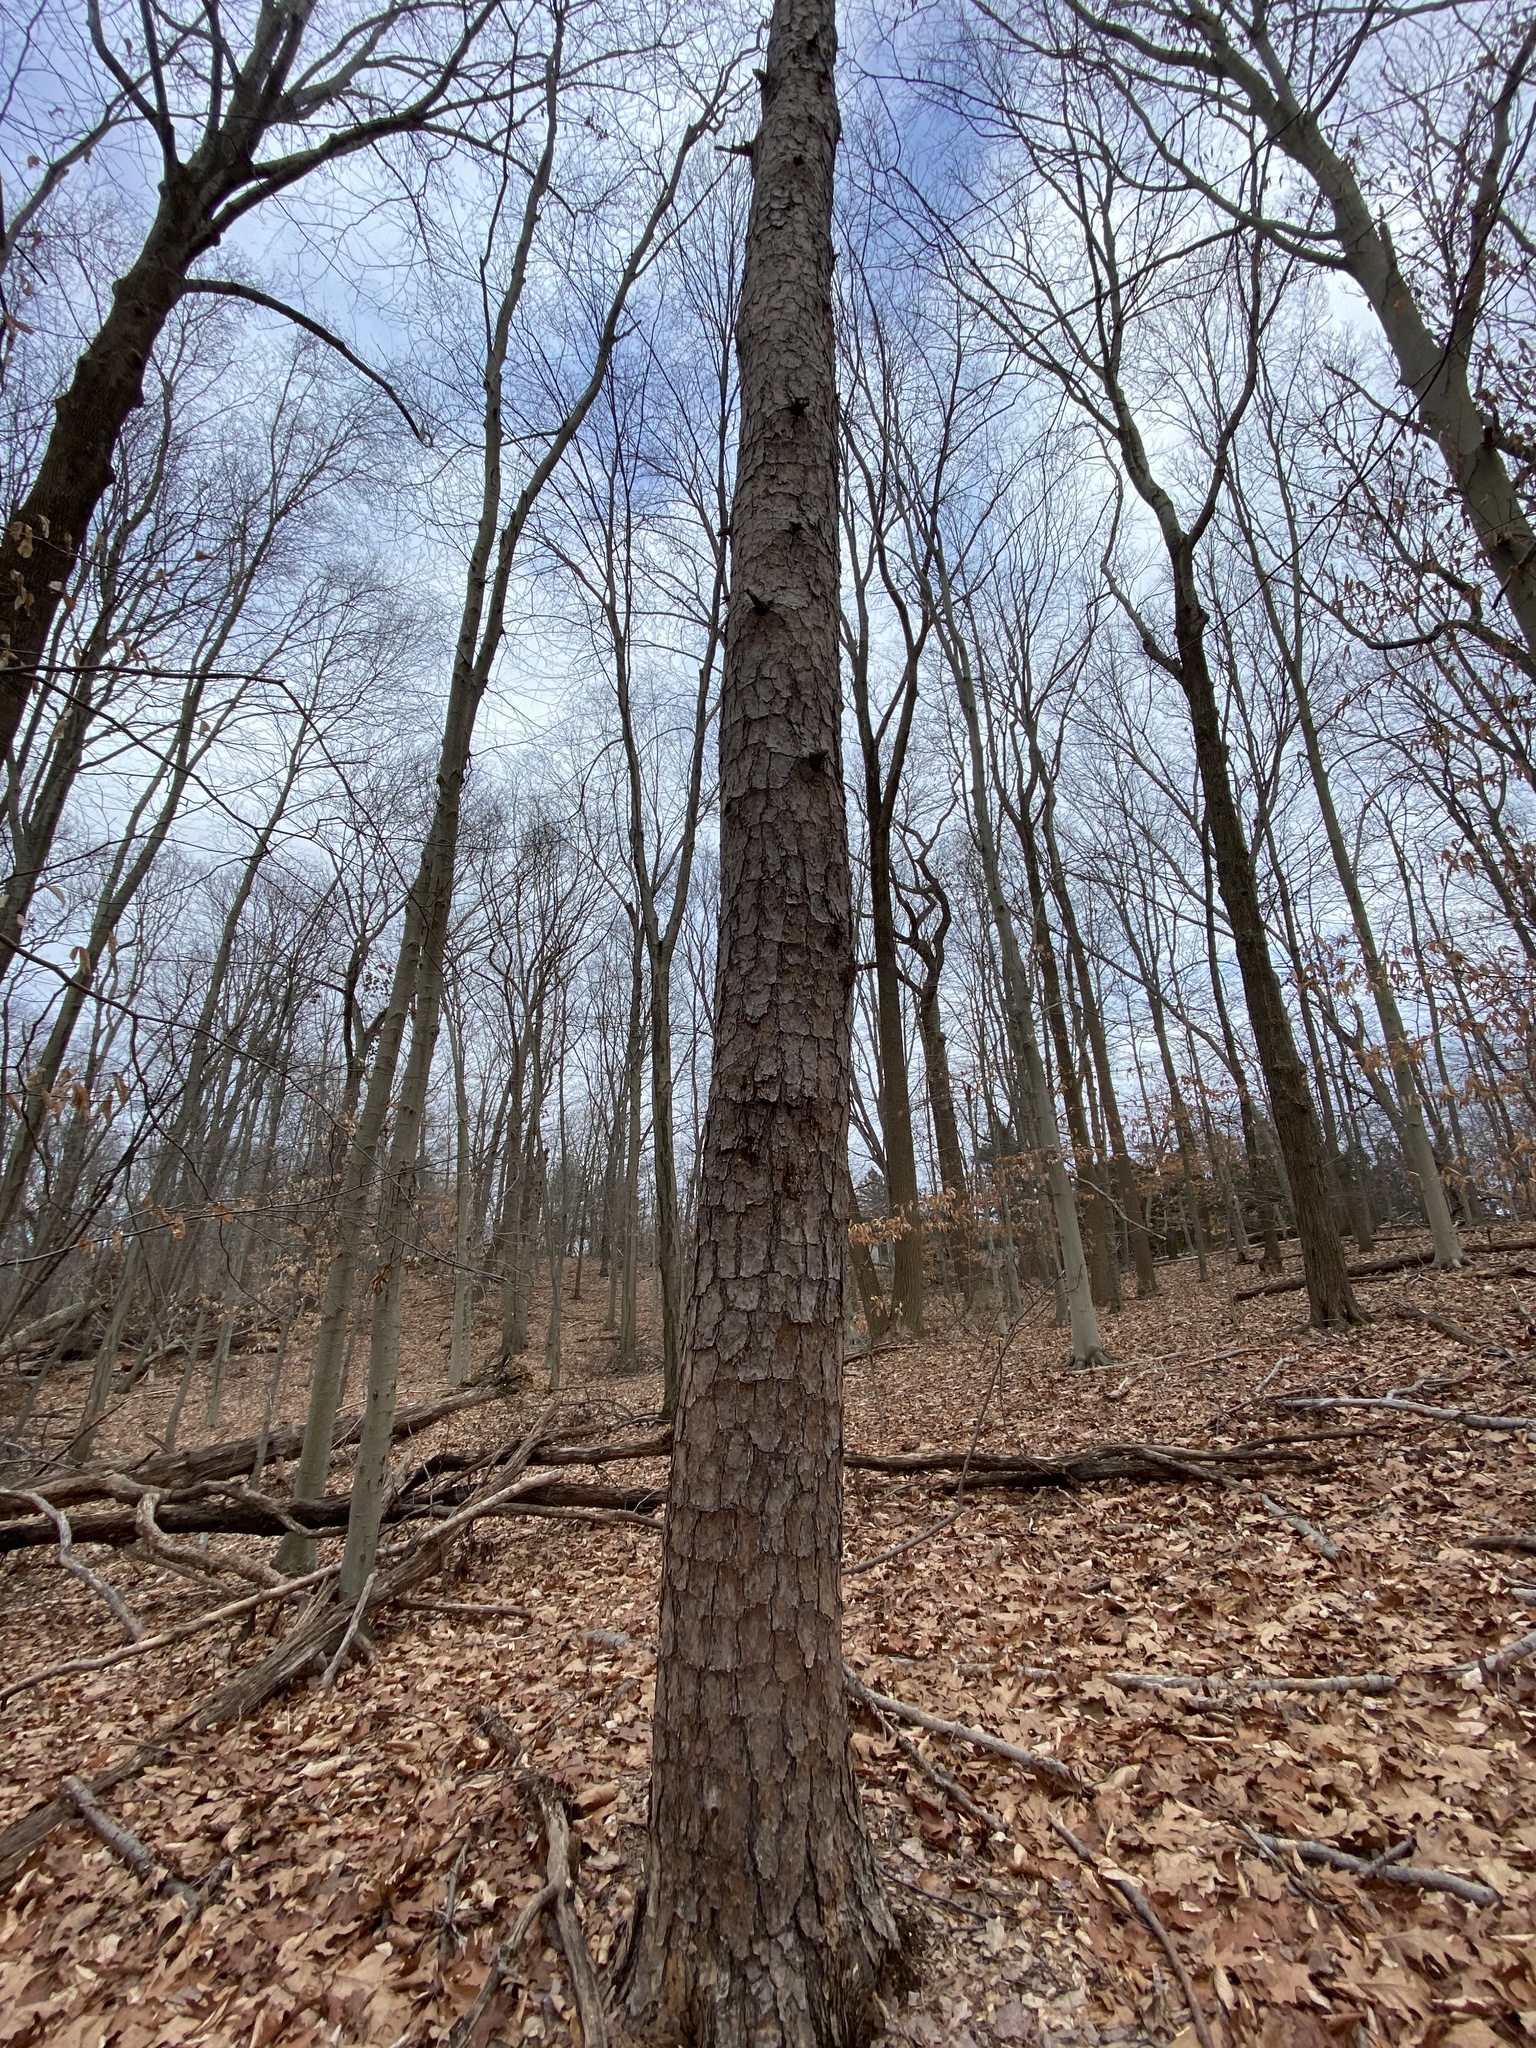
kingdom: Plantae
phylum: Tracheophyta
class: Pinopsida
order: Pinales
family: Pinaceae
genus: Pinus
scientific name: Pinus rigida
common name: Pitch pine
